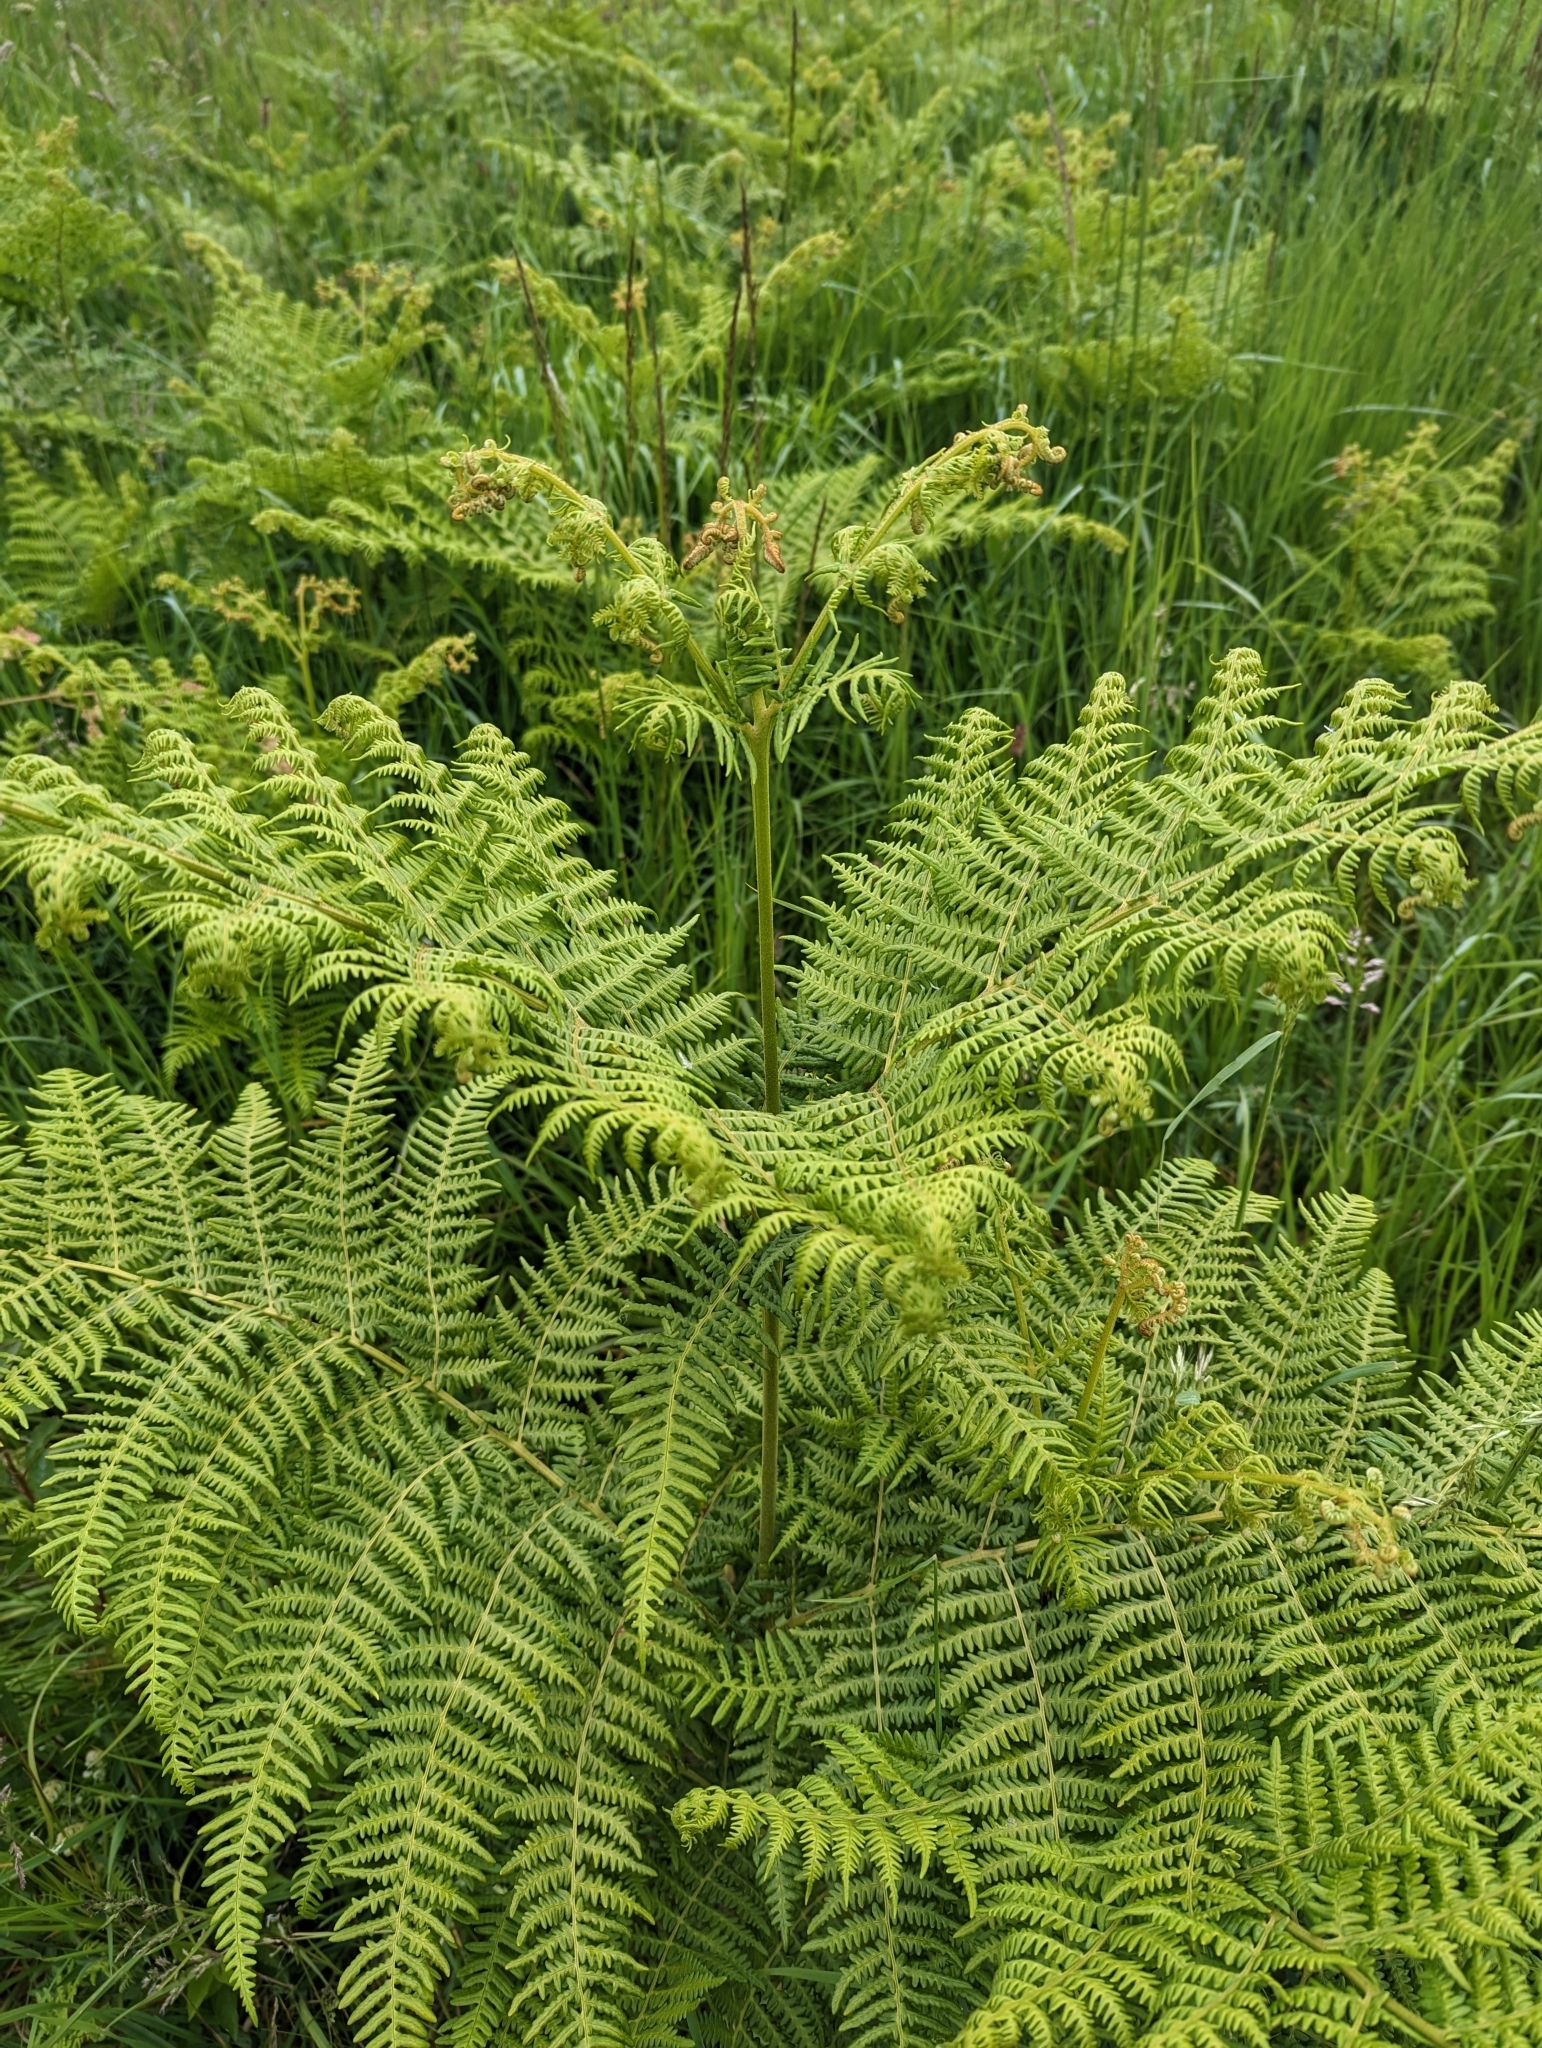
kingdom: Plantae
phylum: Tracheophyta
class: Polypodiopsida
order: Polypodiales
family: Dennstaedtiaceae
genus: Pteridium
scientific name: Pteridium aquilinum
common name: Bracken
